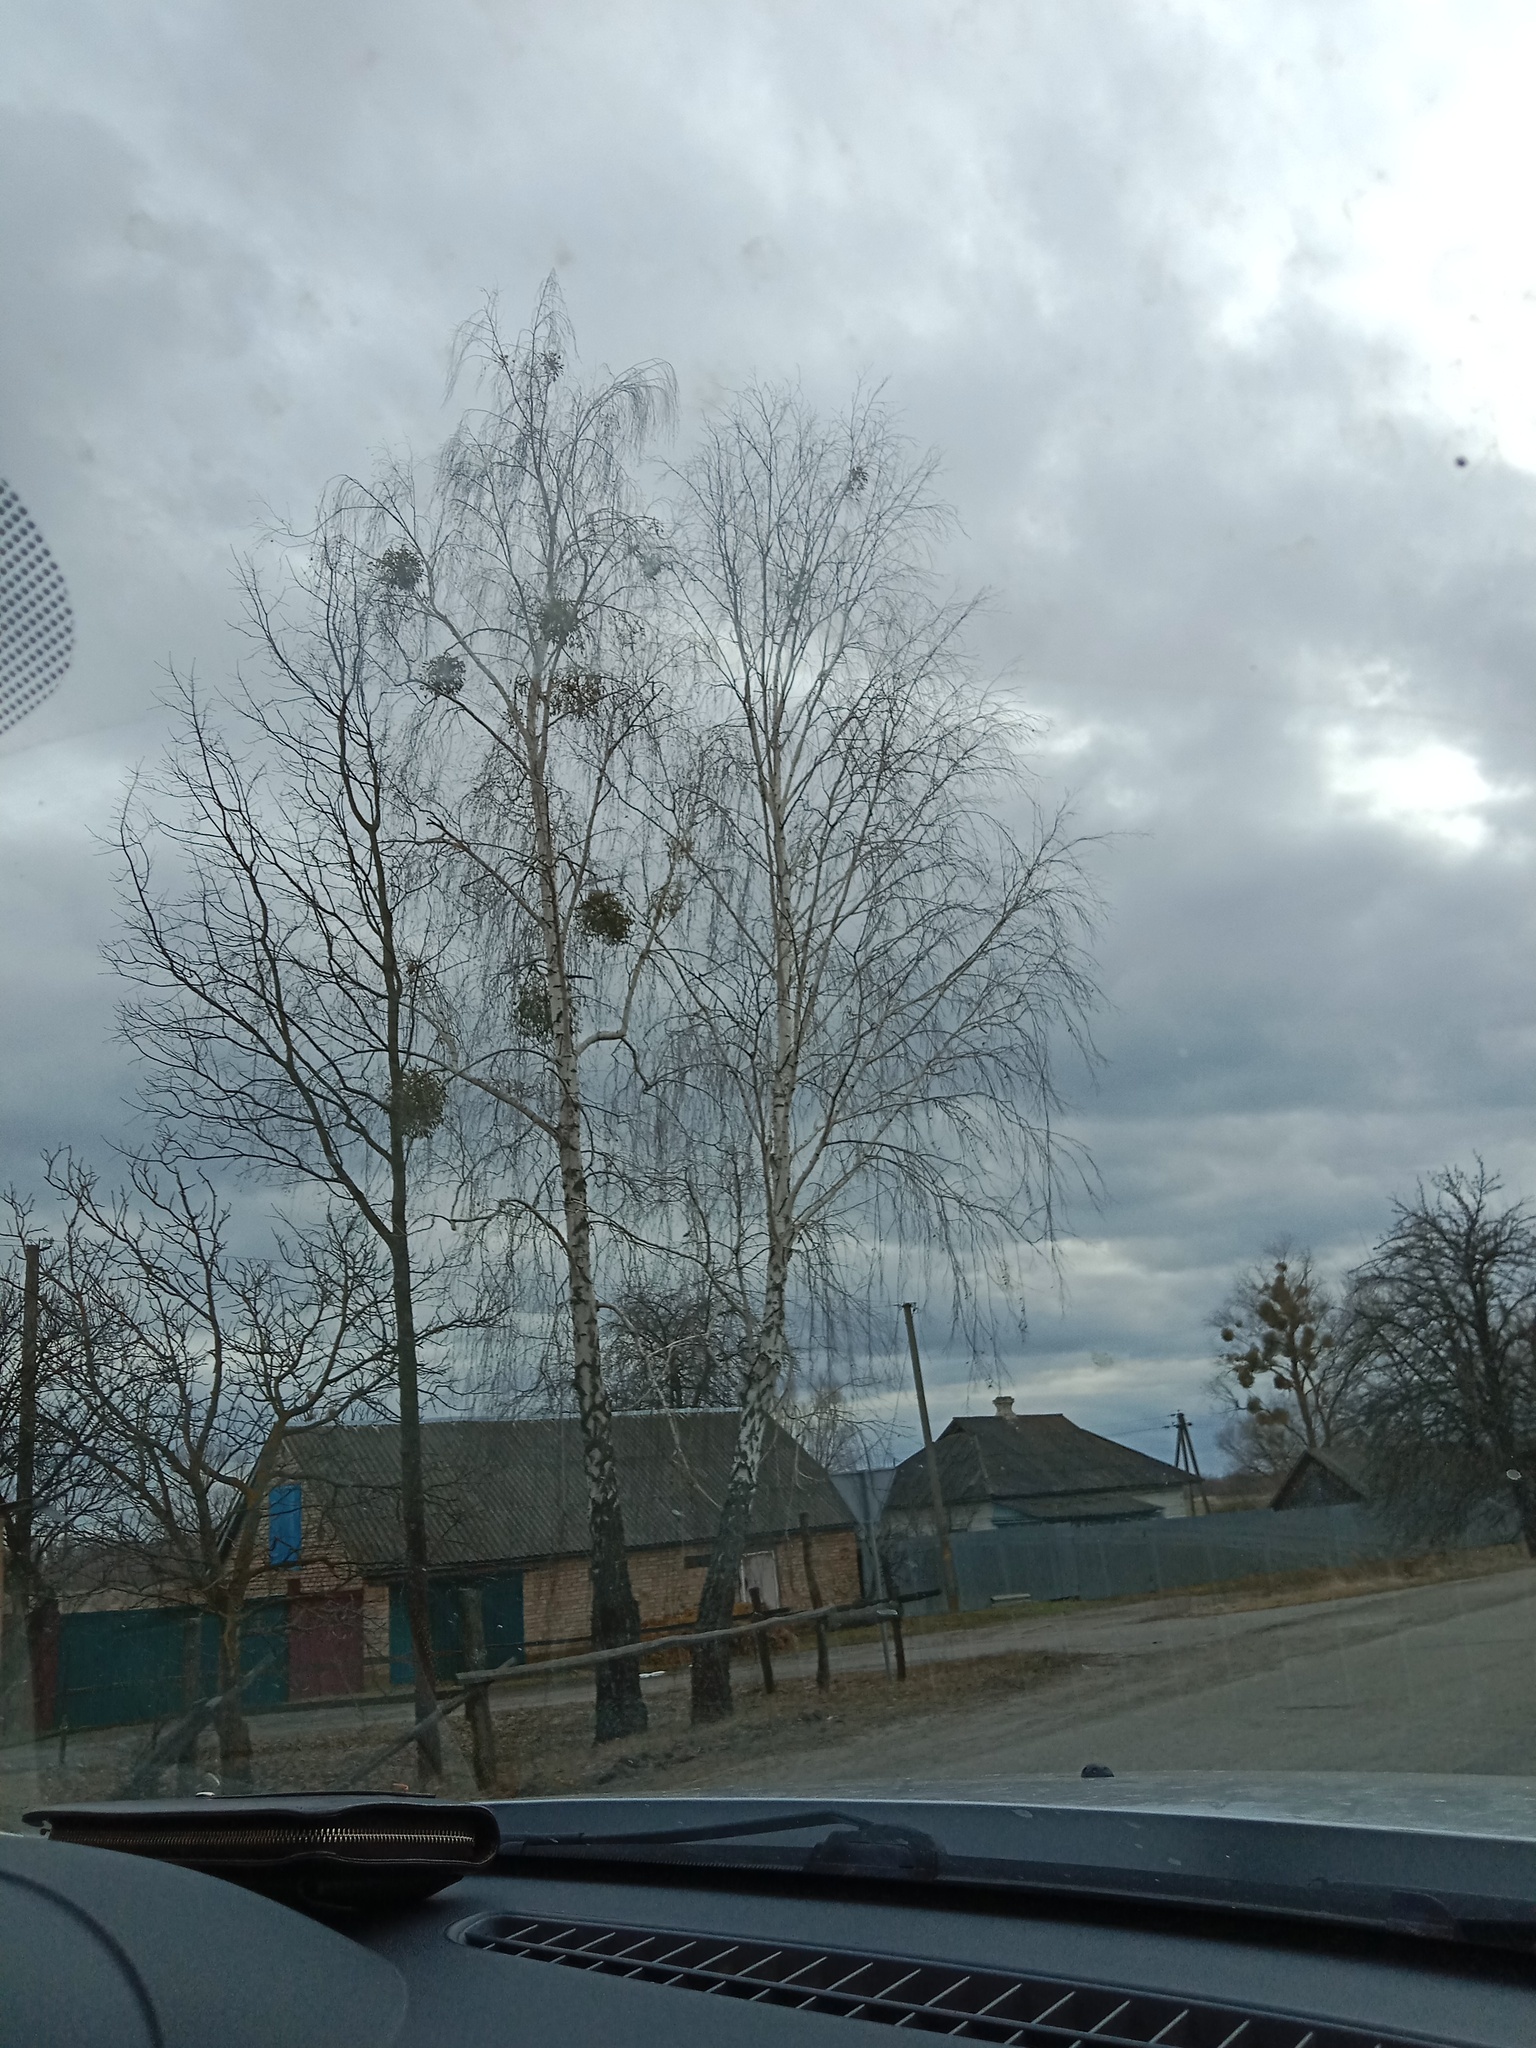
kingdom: Plantae
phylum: Tracheophyta
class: Magnoliopsida
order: Santalales
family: Viscaceae
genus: Viscum
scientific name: Viscum album
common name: Mistletoe
